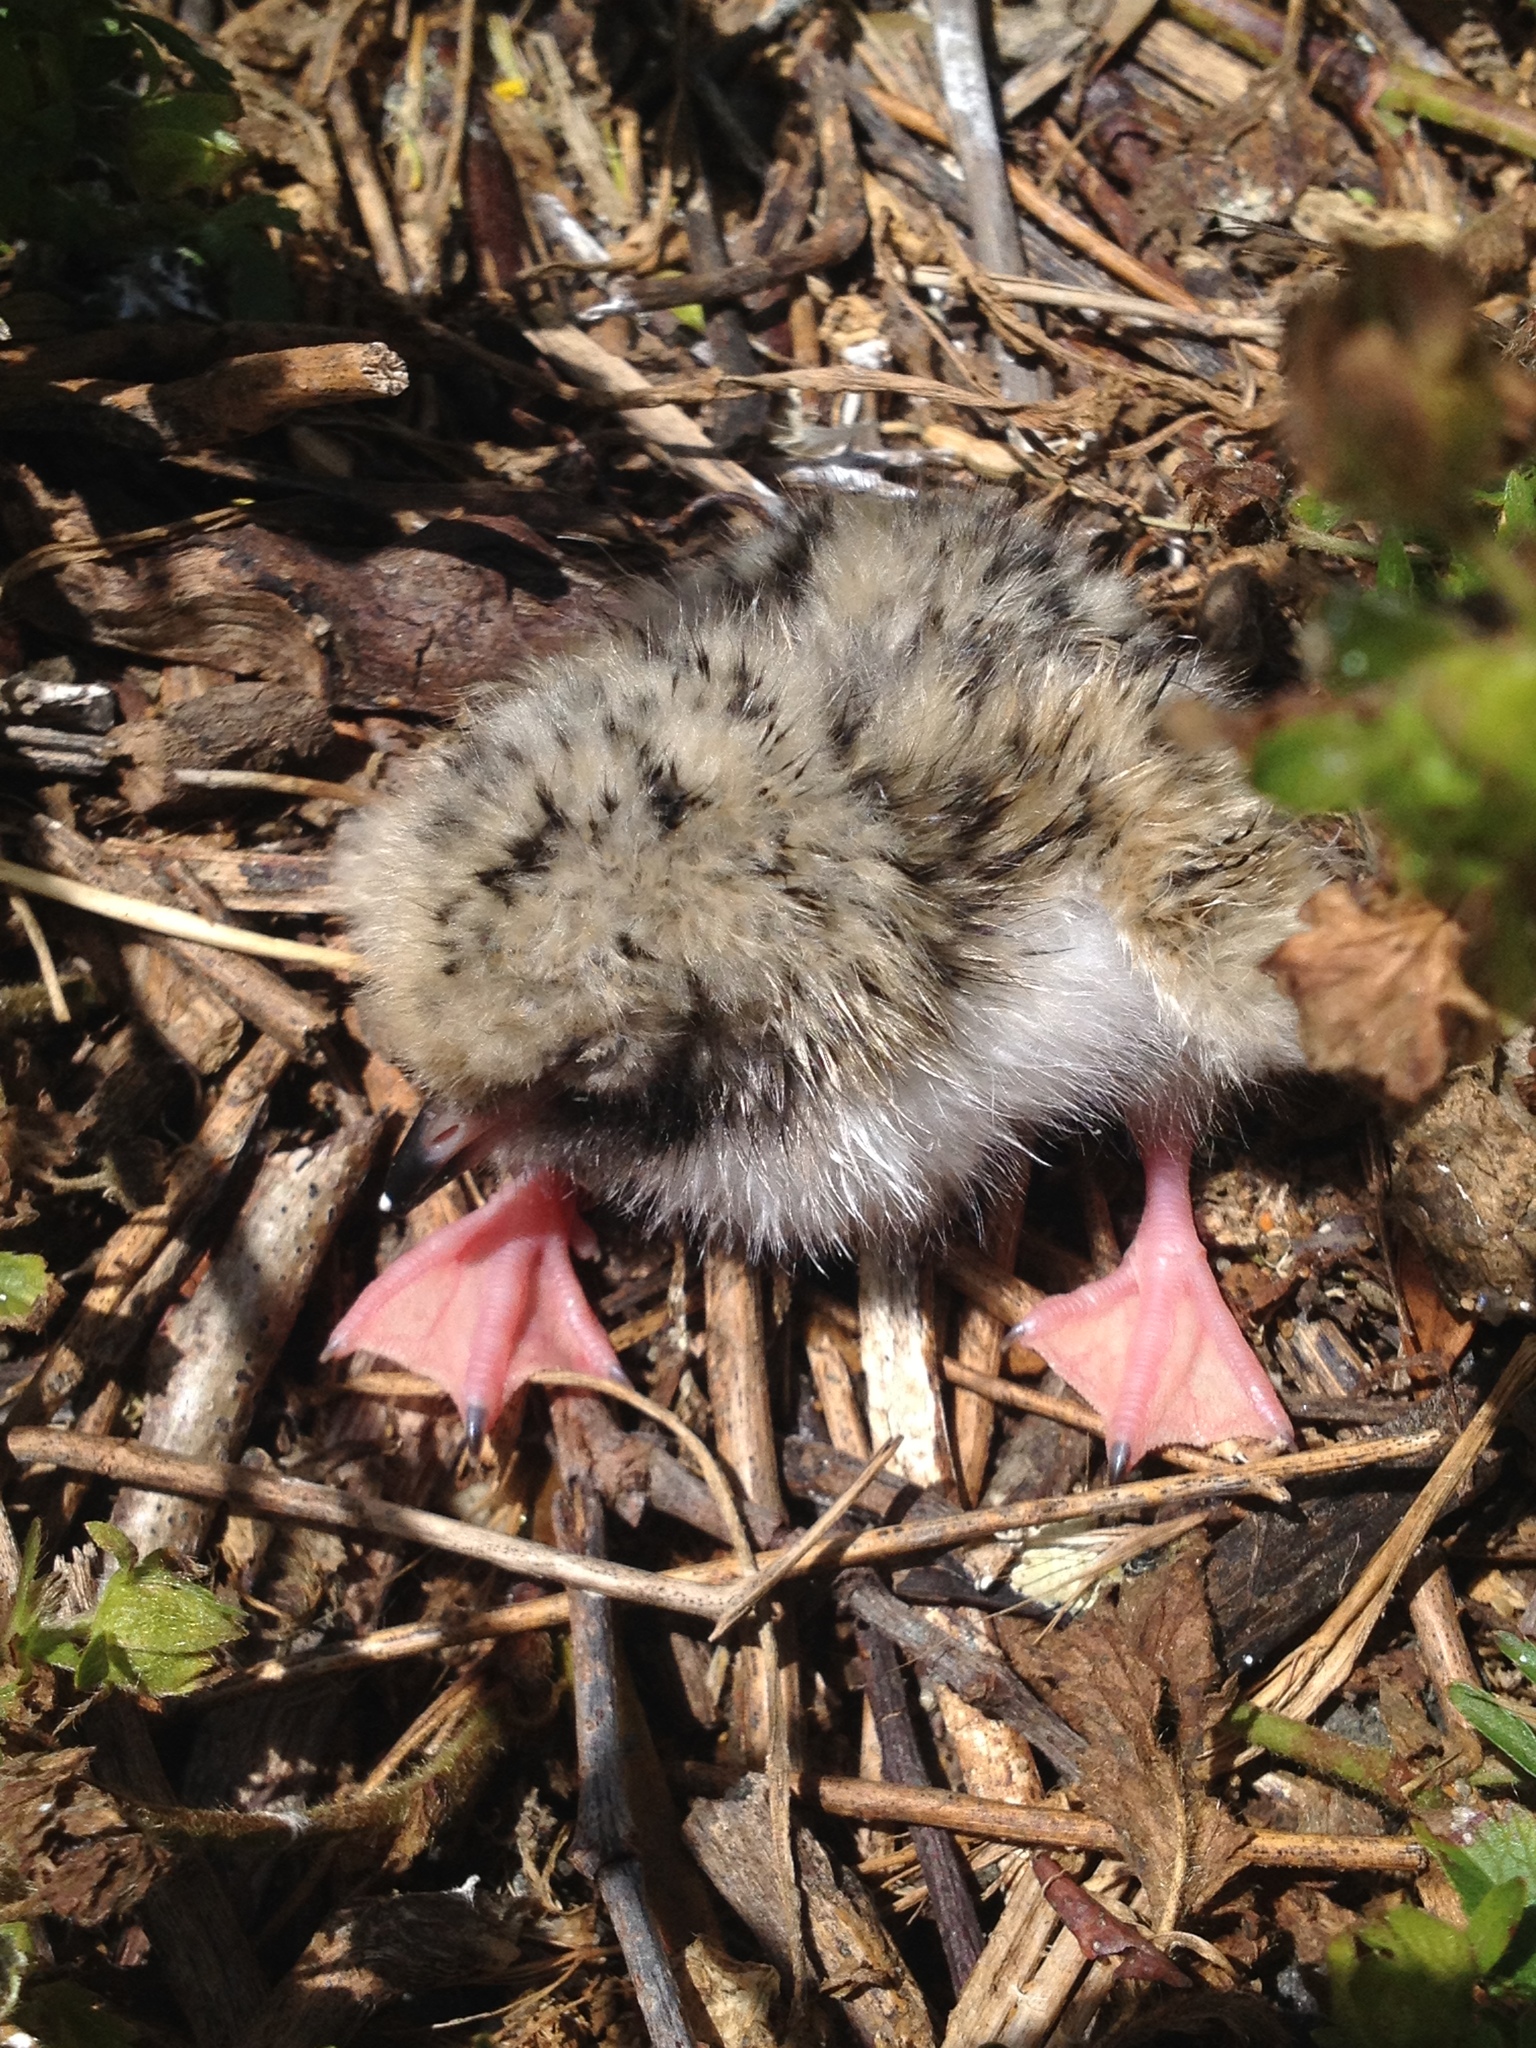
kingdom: Animalia
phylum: Chordata
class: Aves
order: Charadriiformes
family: Laridae
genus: Sterna
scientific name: Sterna hirundo
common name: Common tern
